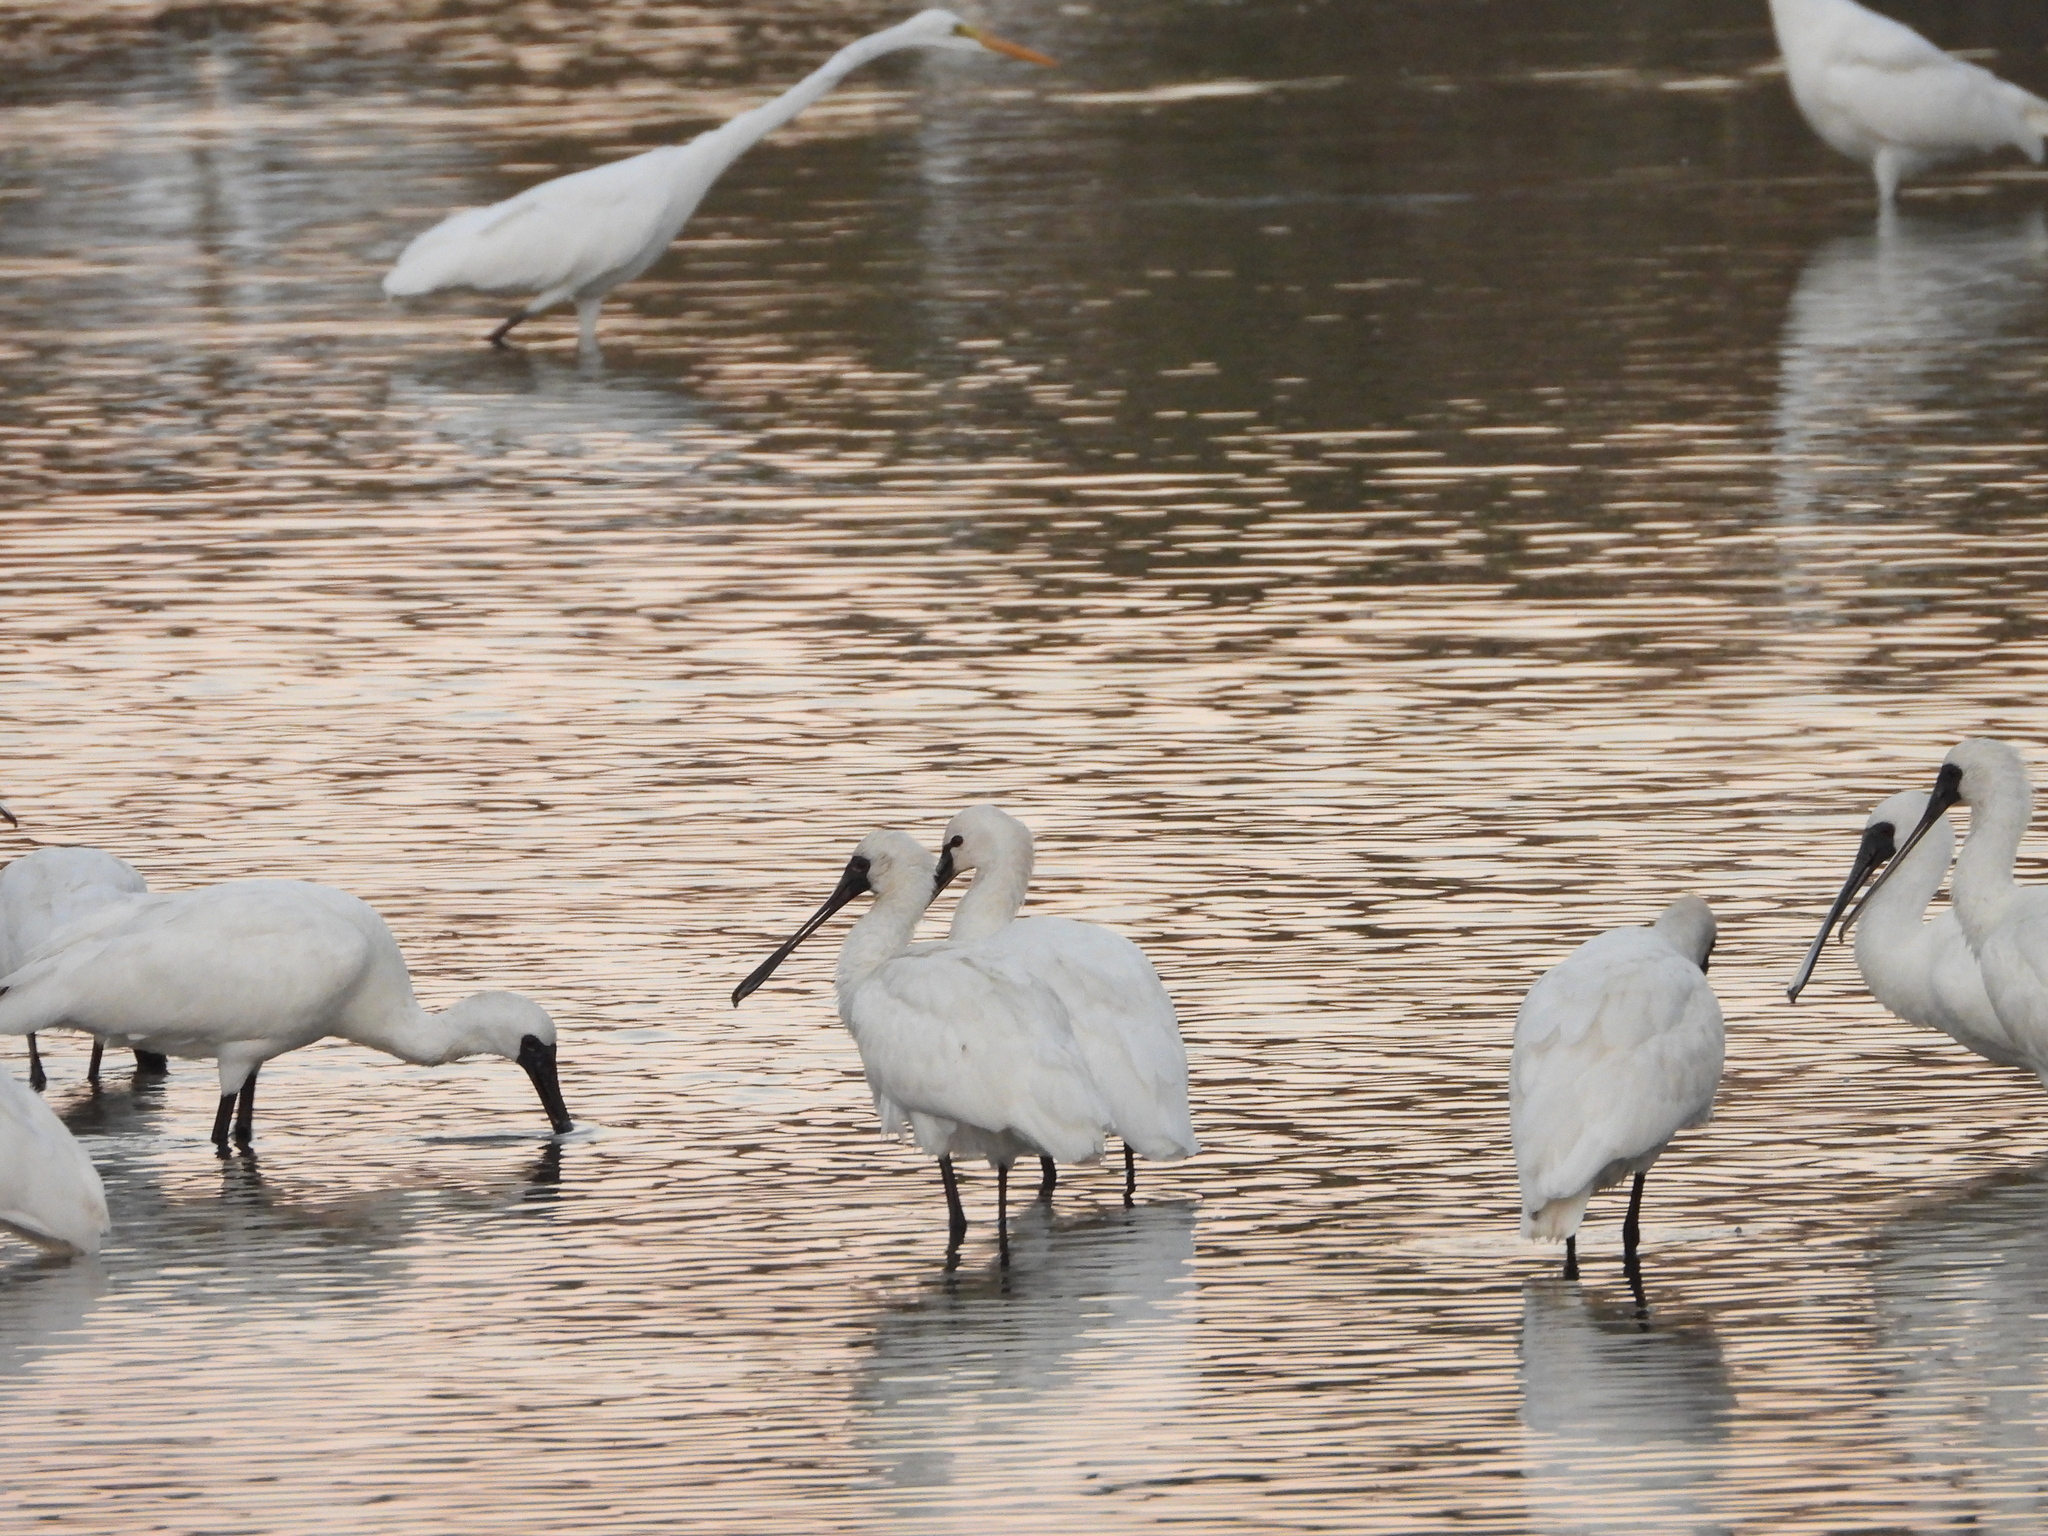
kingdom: Animalia
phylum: Chordata
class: Aves
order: Pelecaniformes
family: Threskiornithidae
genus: Platalea
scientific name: Platalea leucorodia
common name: Eurasian spoonbill
